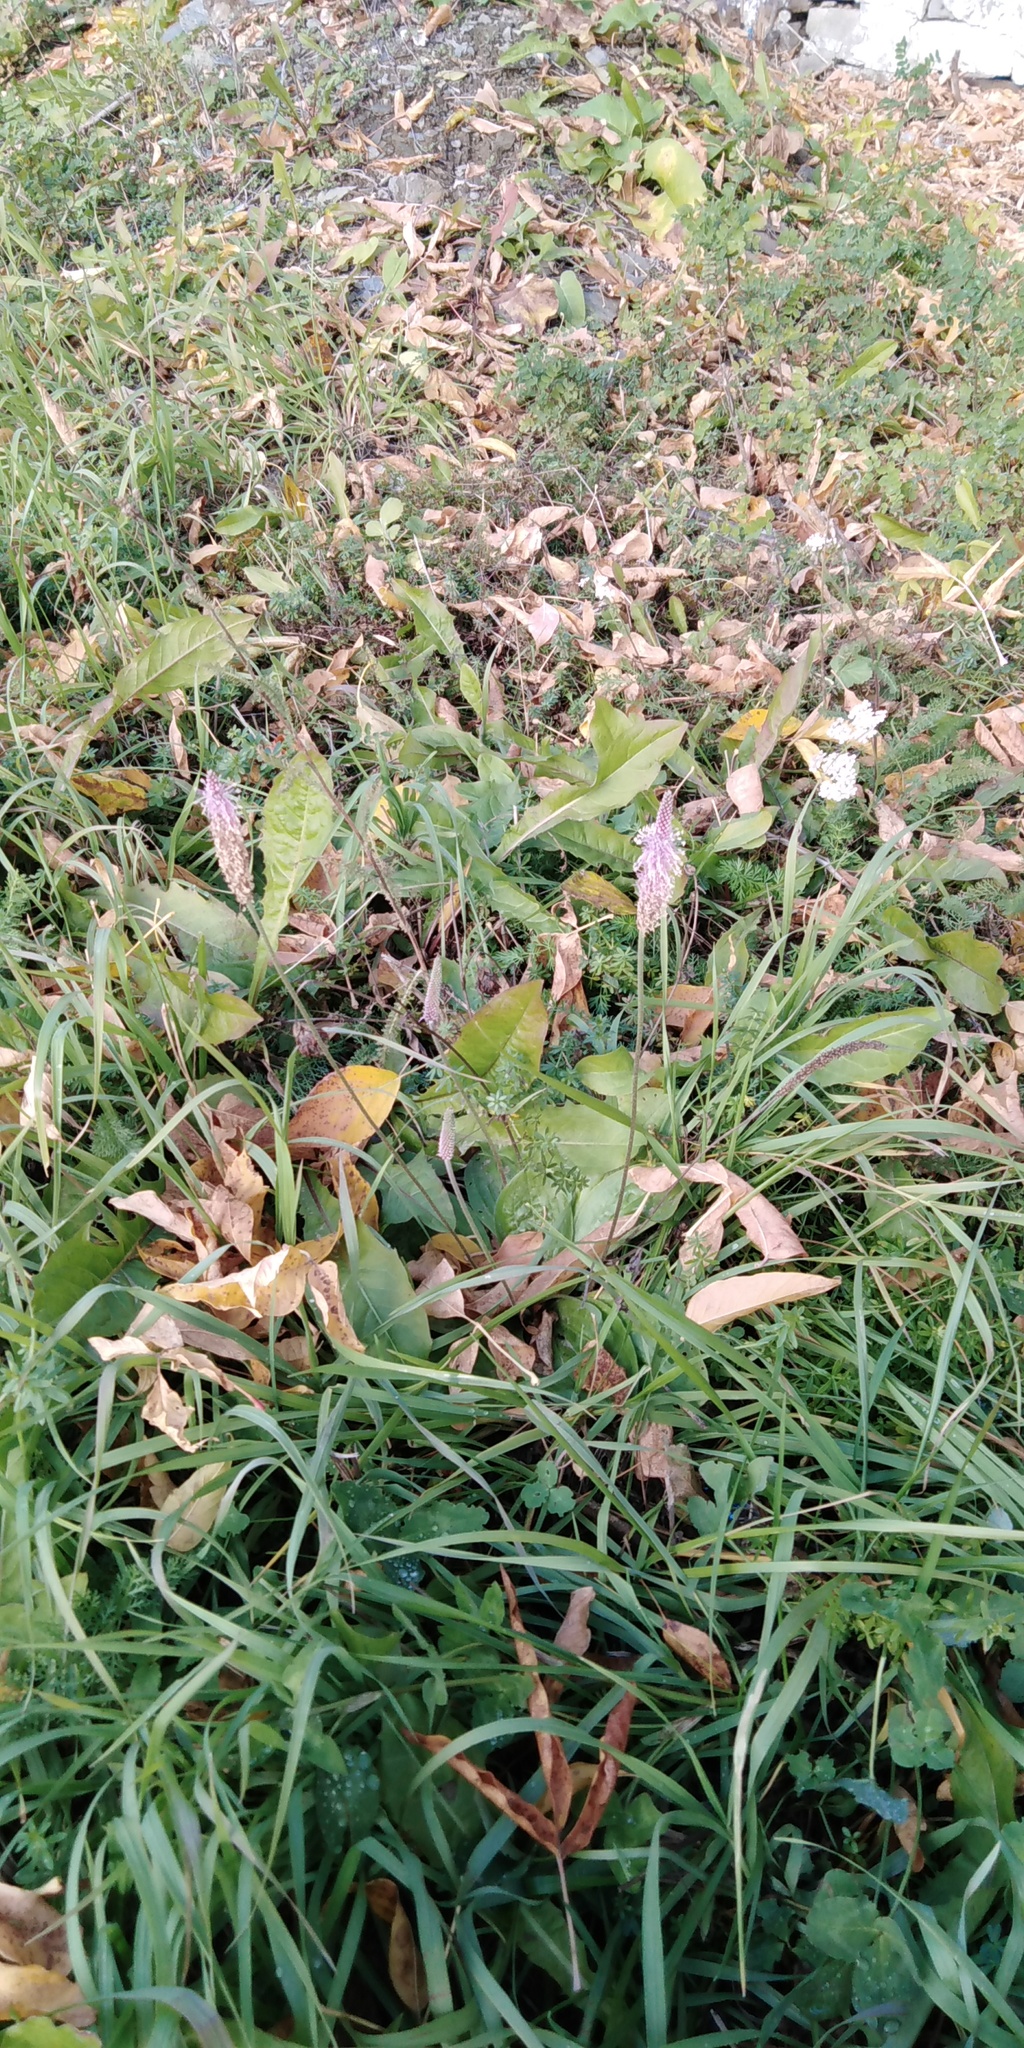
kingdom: Plantae
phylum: Tracheophyta
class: Magnoliopsida
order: Lamiales
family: Plantaginaceae
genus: Plantago
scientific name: Plantago media
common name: Hoary plantain
